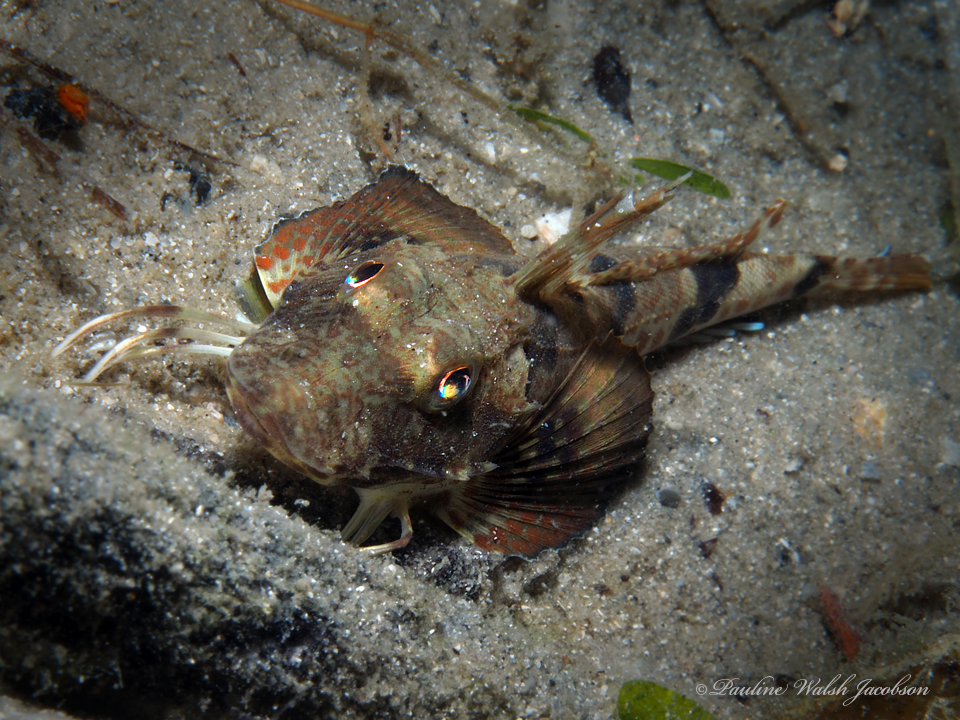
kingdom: Animalia
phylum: Chordata
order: Scorpaeniformes
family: Triglidae
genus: Prionotus
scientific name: Prionotus carolinus
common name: Northern searobin
